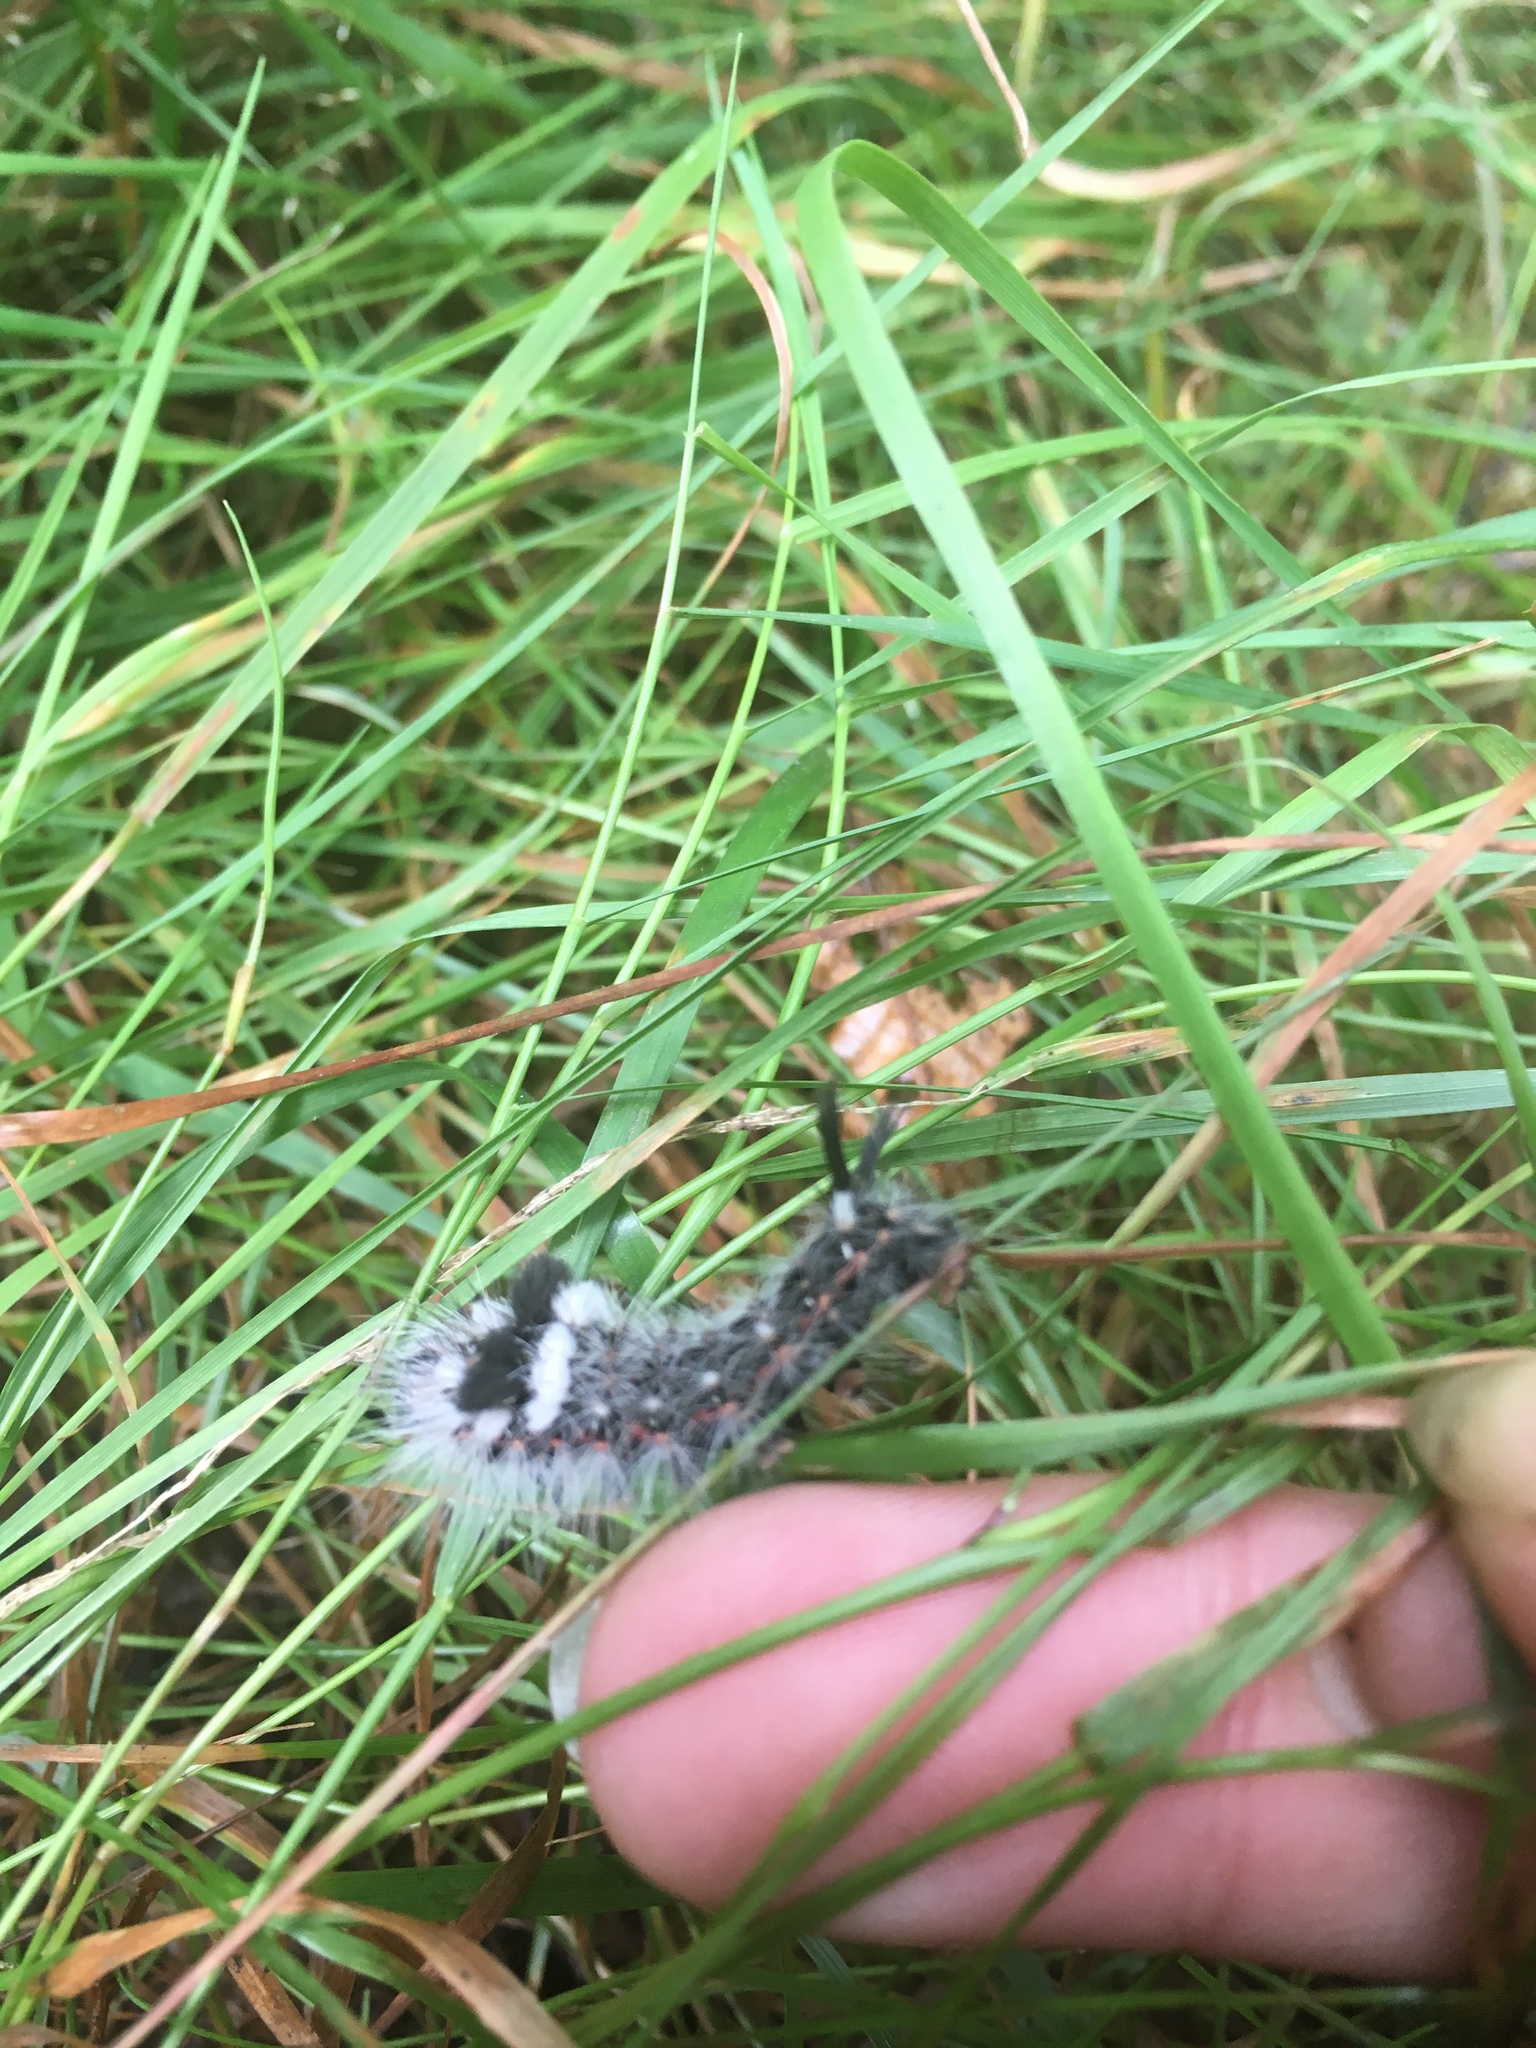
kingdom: Animalia
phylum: Arthropoda
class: Insecta
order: Lepidoptera
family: Noctuidae
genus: Acronicta
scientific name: Acronicta impleta
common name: Powdered dagger
